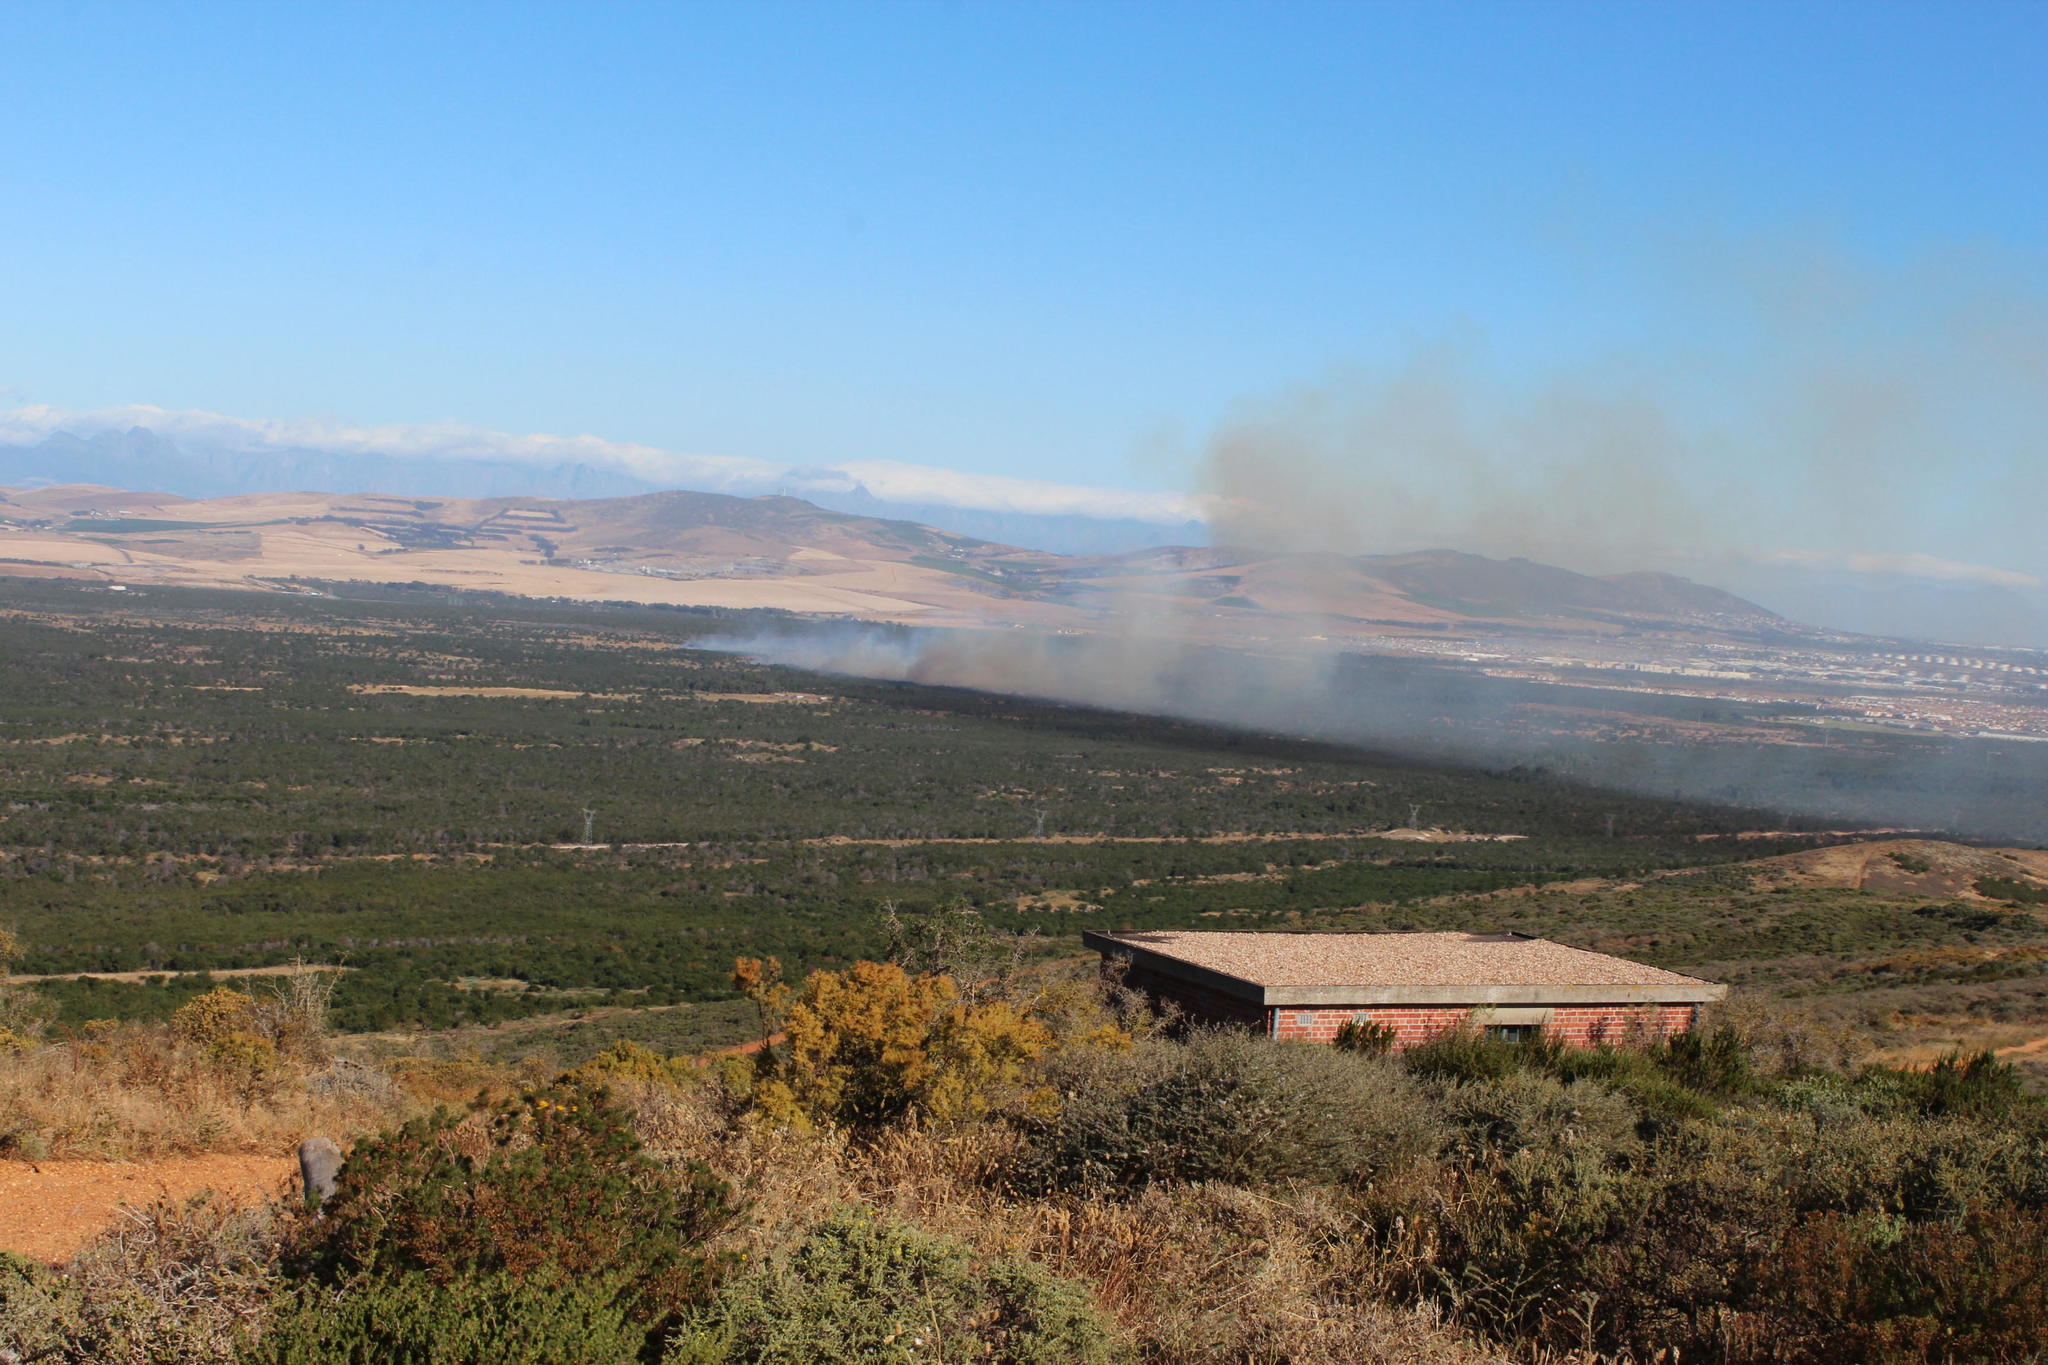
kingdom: Plantae
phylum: Tracheophyta
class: Magnoliopsida
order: Fabales
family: Fabaceae
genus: Acacia
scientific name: Acacia saligna
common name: Orange wattle
